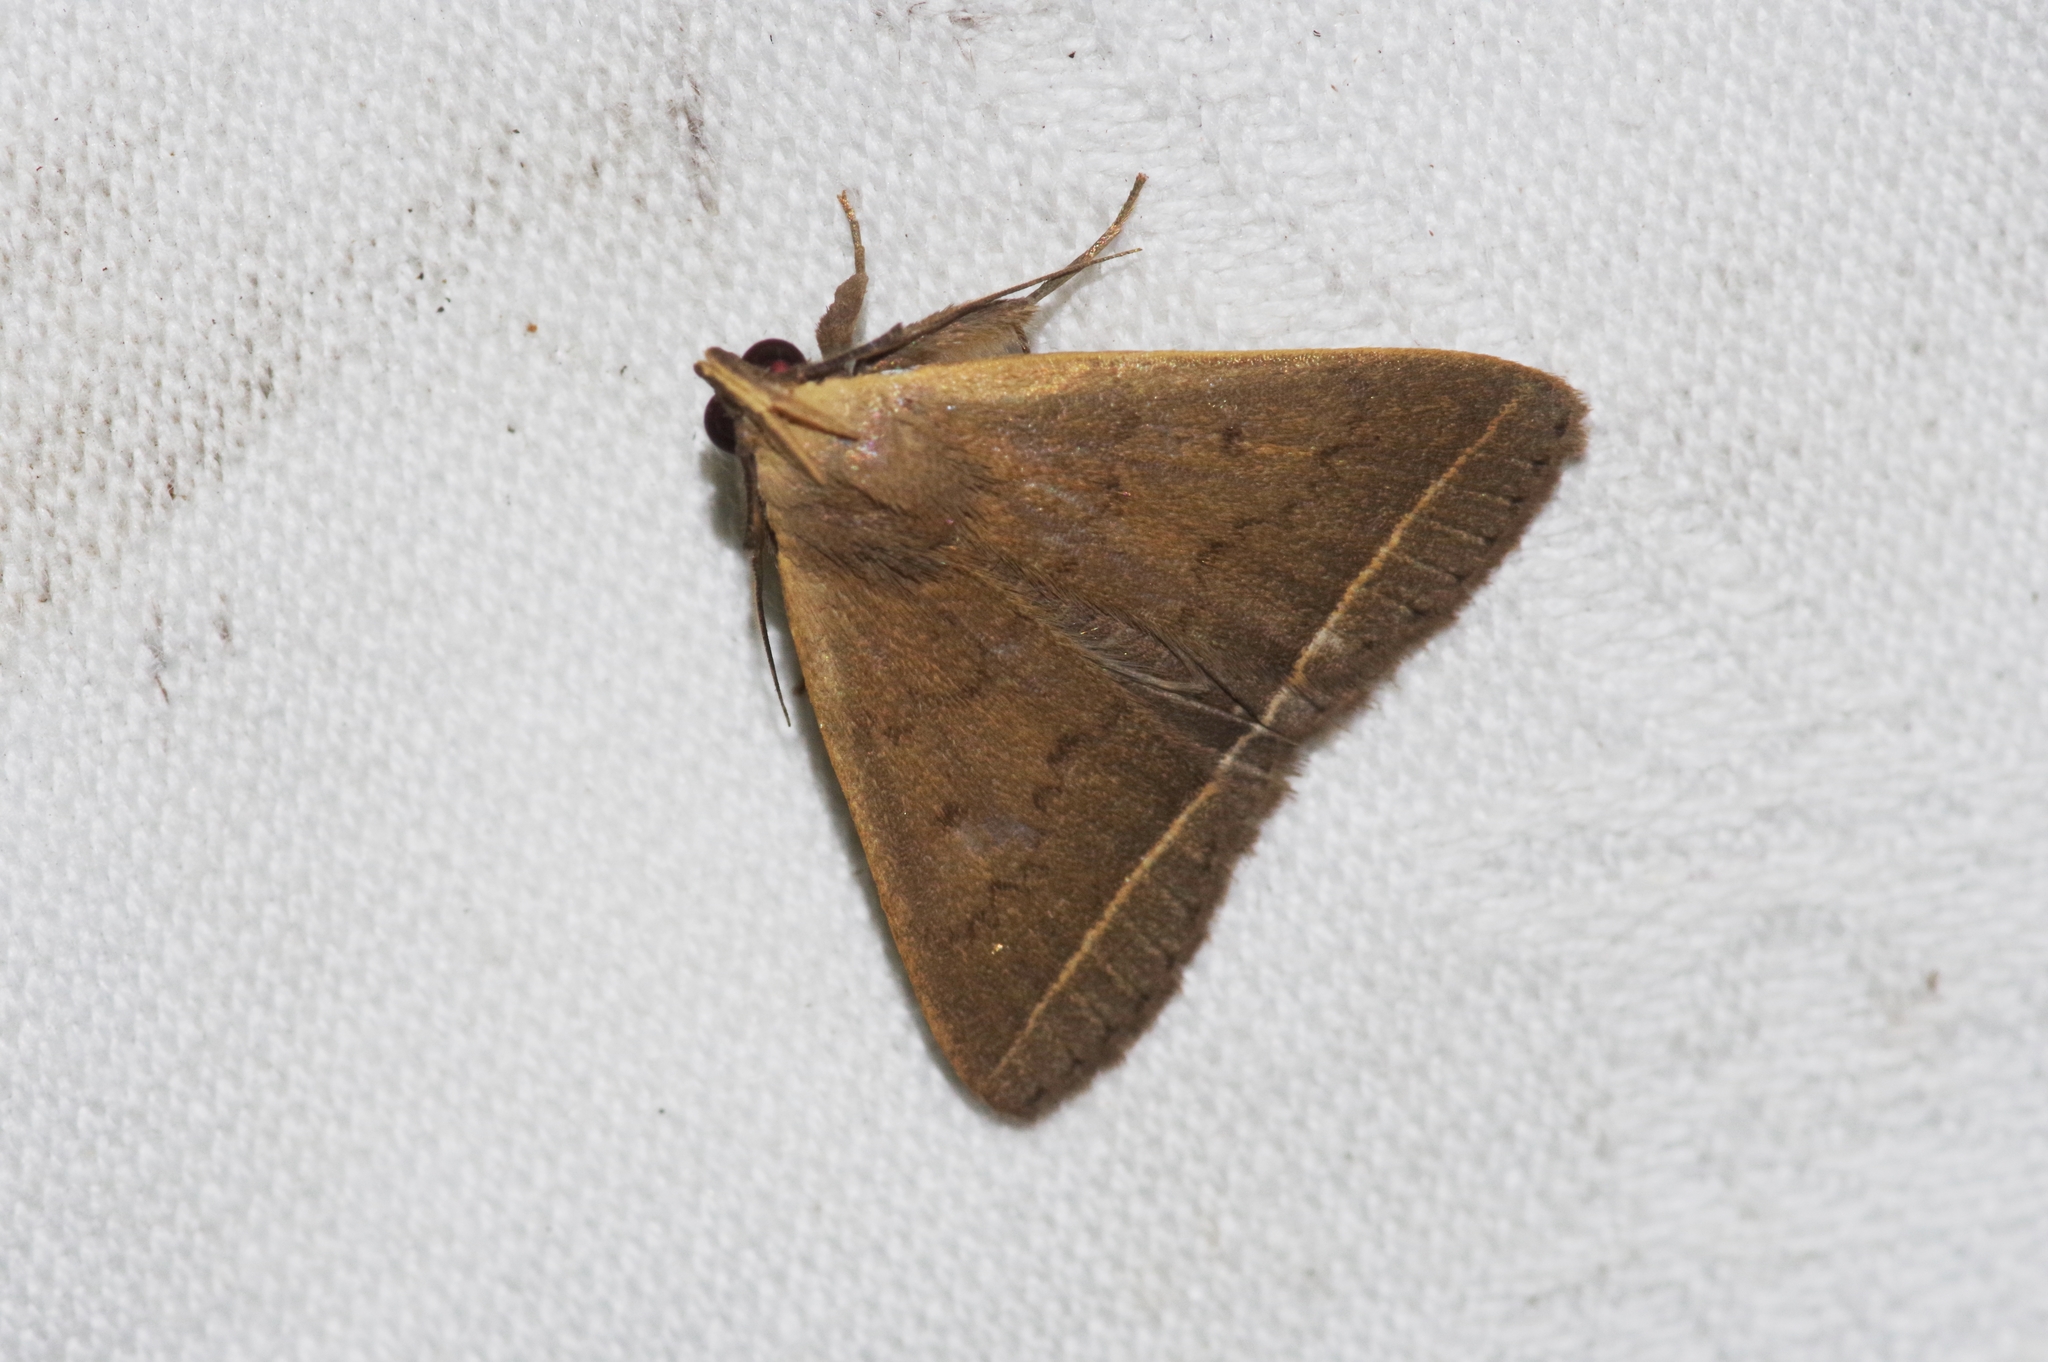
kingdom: Animalia
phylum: Arthropoda
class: Insecta
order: Lepidoptera
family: Erebidae
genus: Simplicia
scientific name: Simplicia xanthoma
